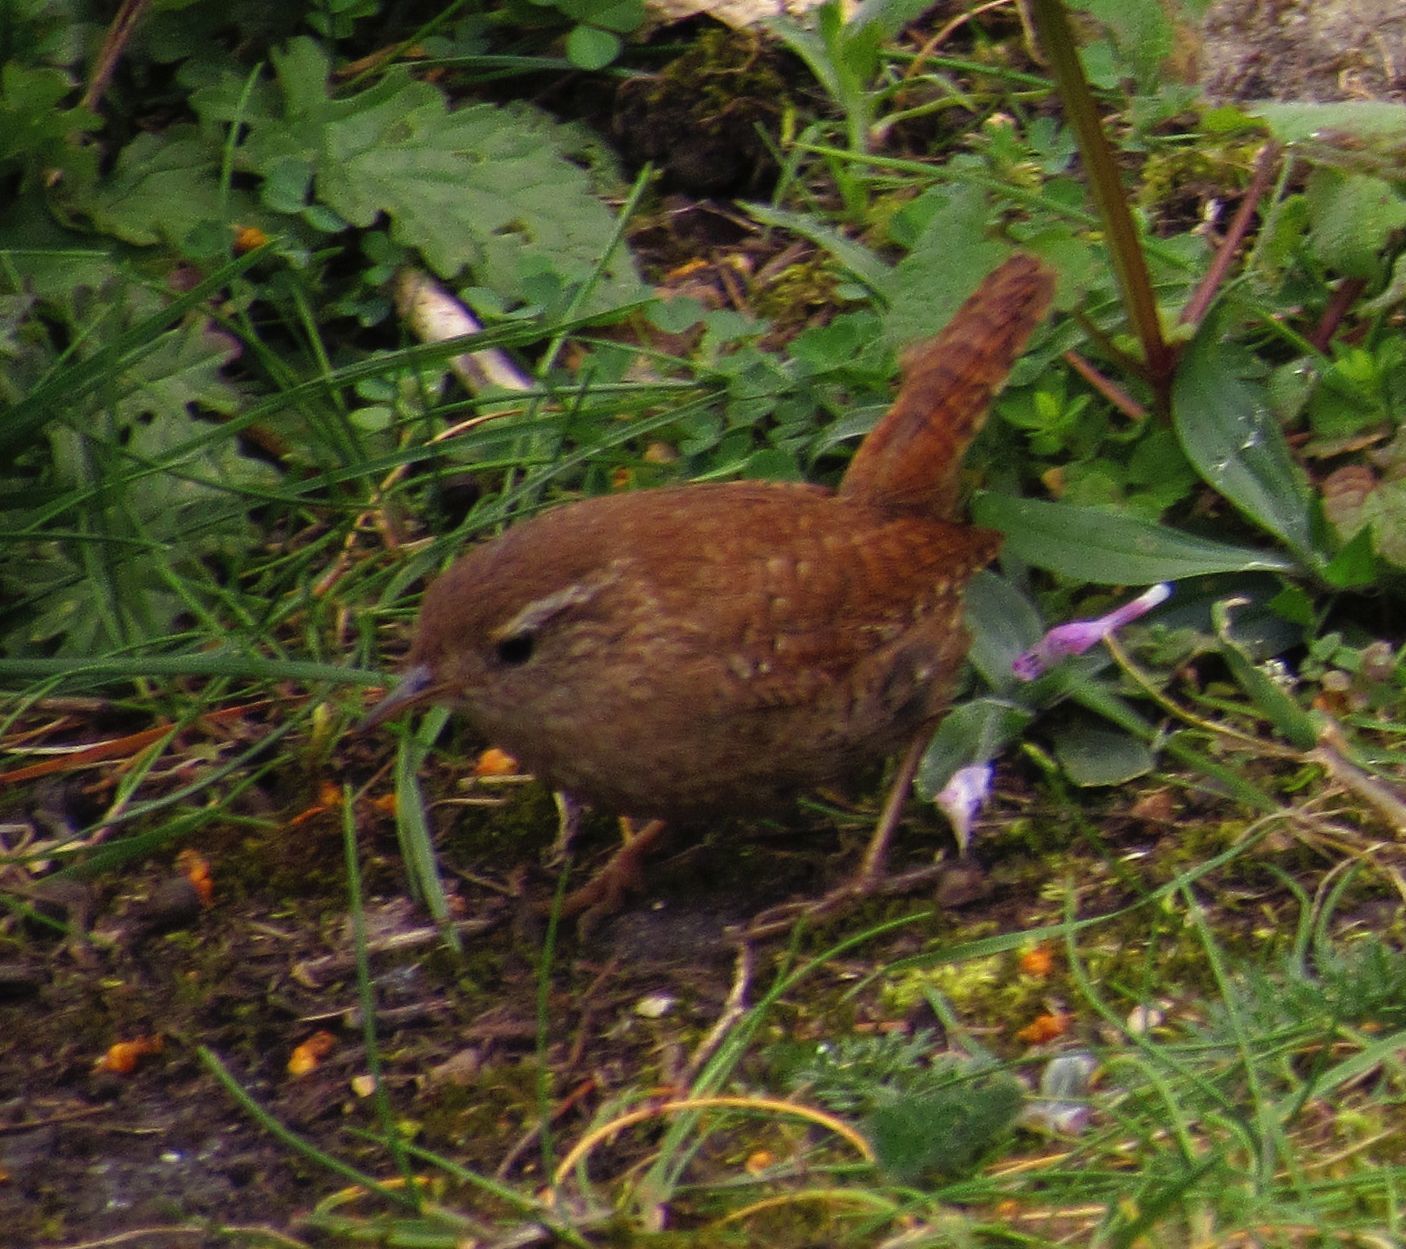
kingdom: Animalia
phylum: Chordata
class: Aves
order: Passeriformes
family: Troglodytidae
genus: Troglodytes
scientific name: Troglodytes troglodytes
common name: Eurasian wren
